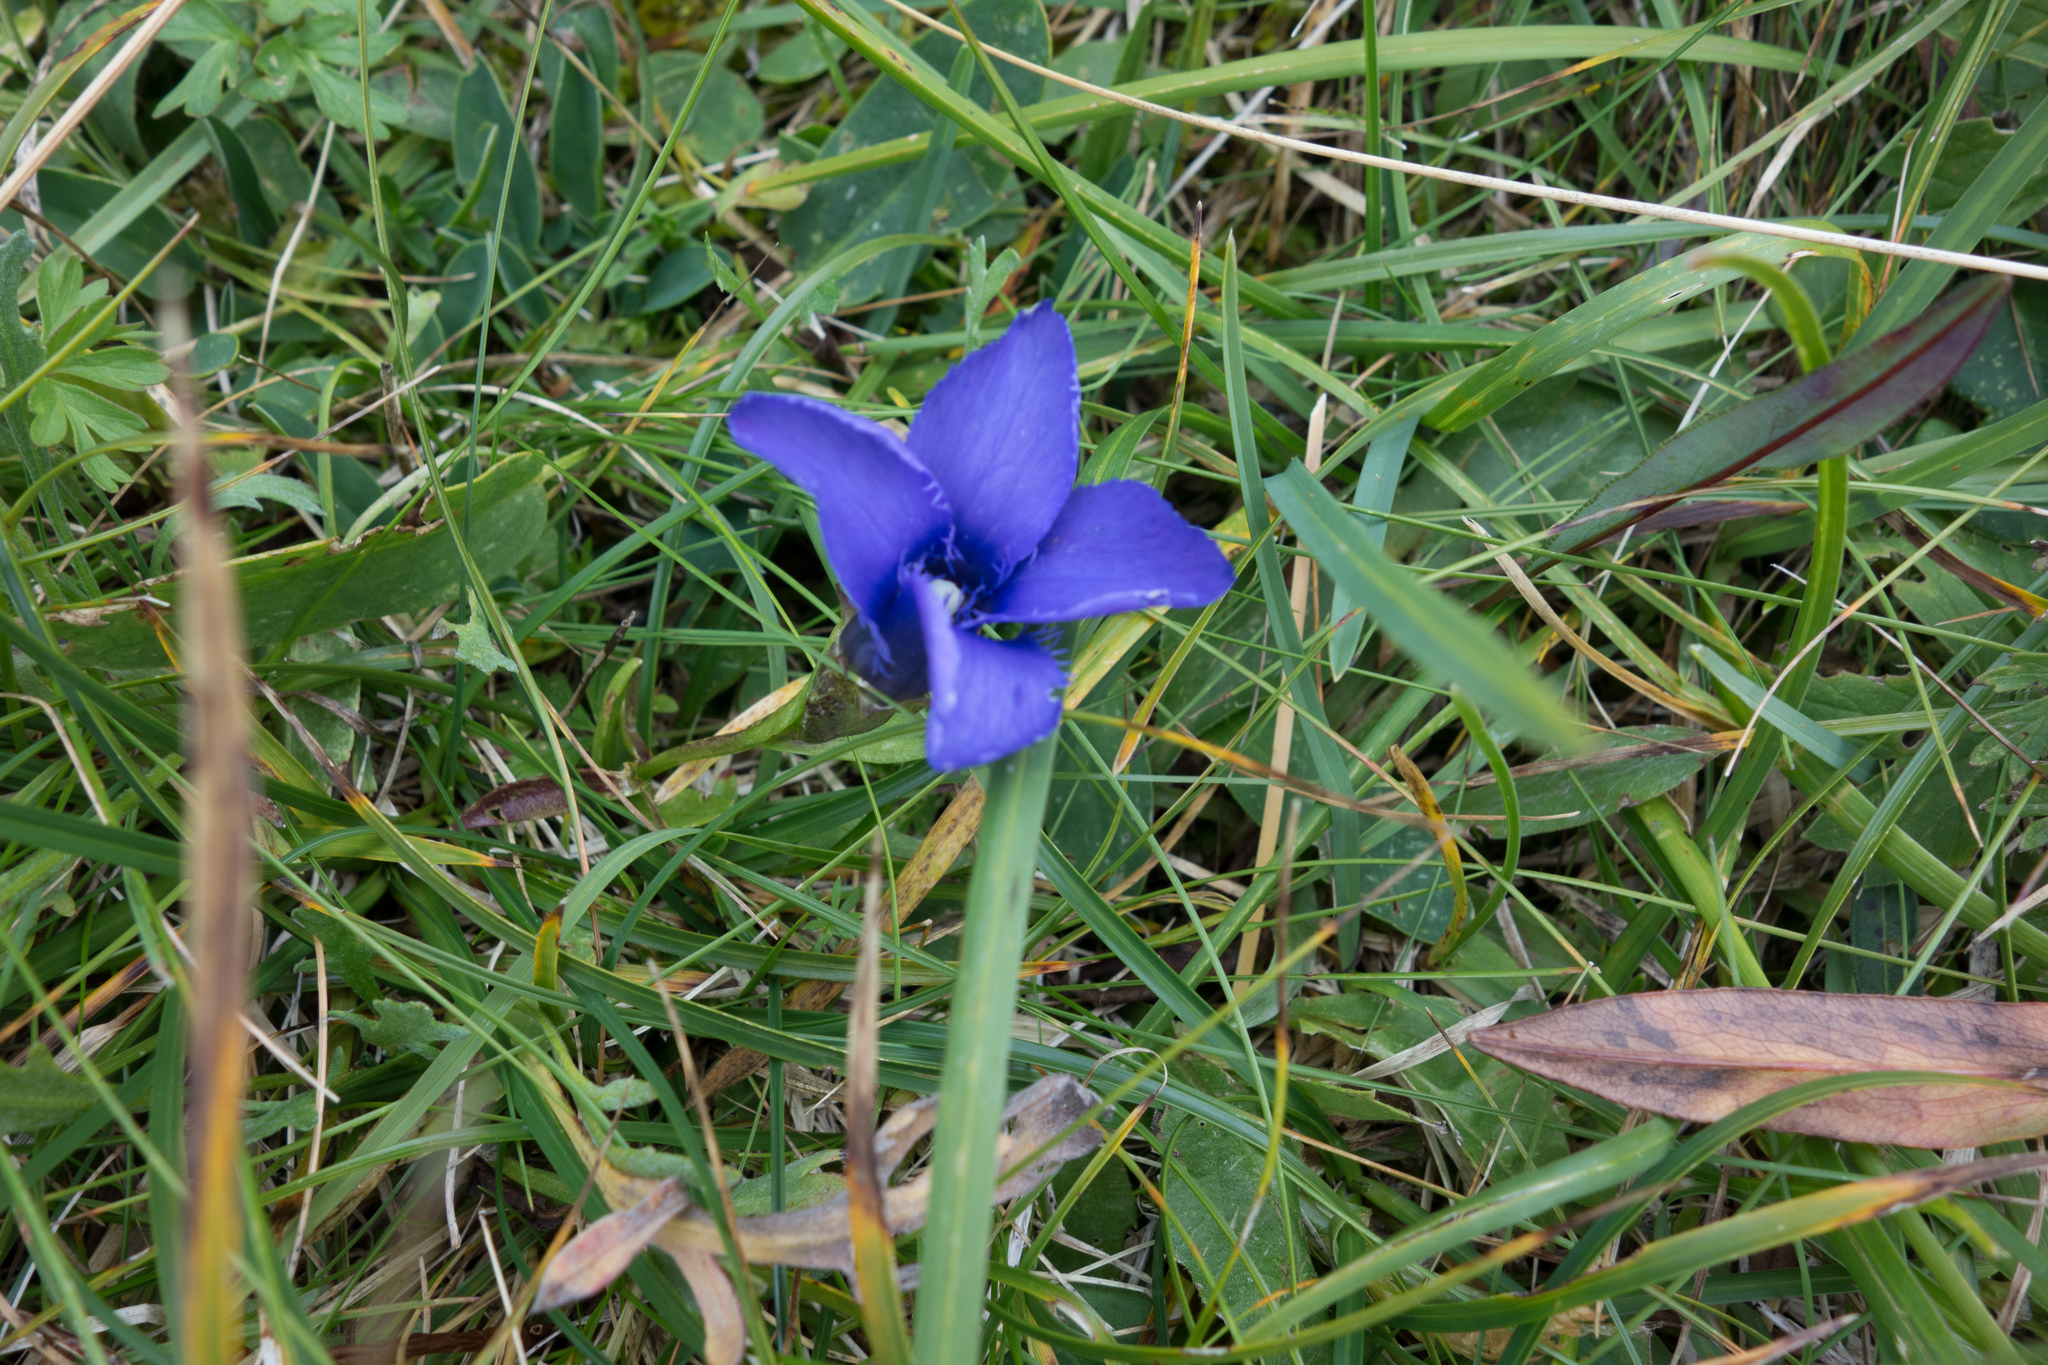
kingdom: Plantae
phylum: Tracheophyta
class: Magnoliopsida
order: Gentianales
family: Gentianaceae
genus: Gentianopsis
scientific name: Gentianopsis ciliata
